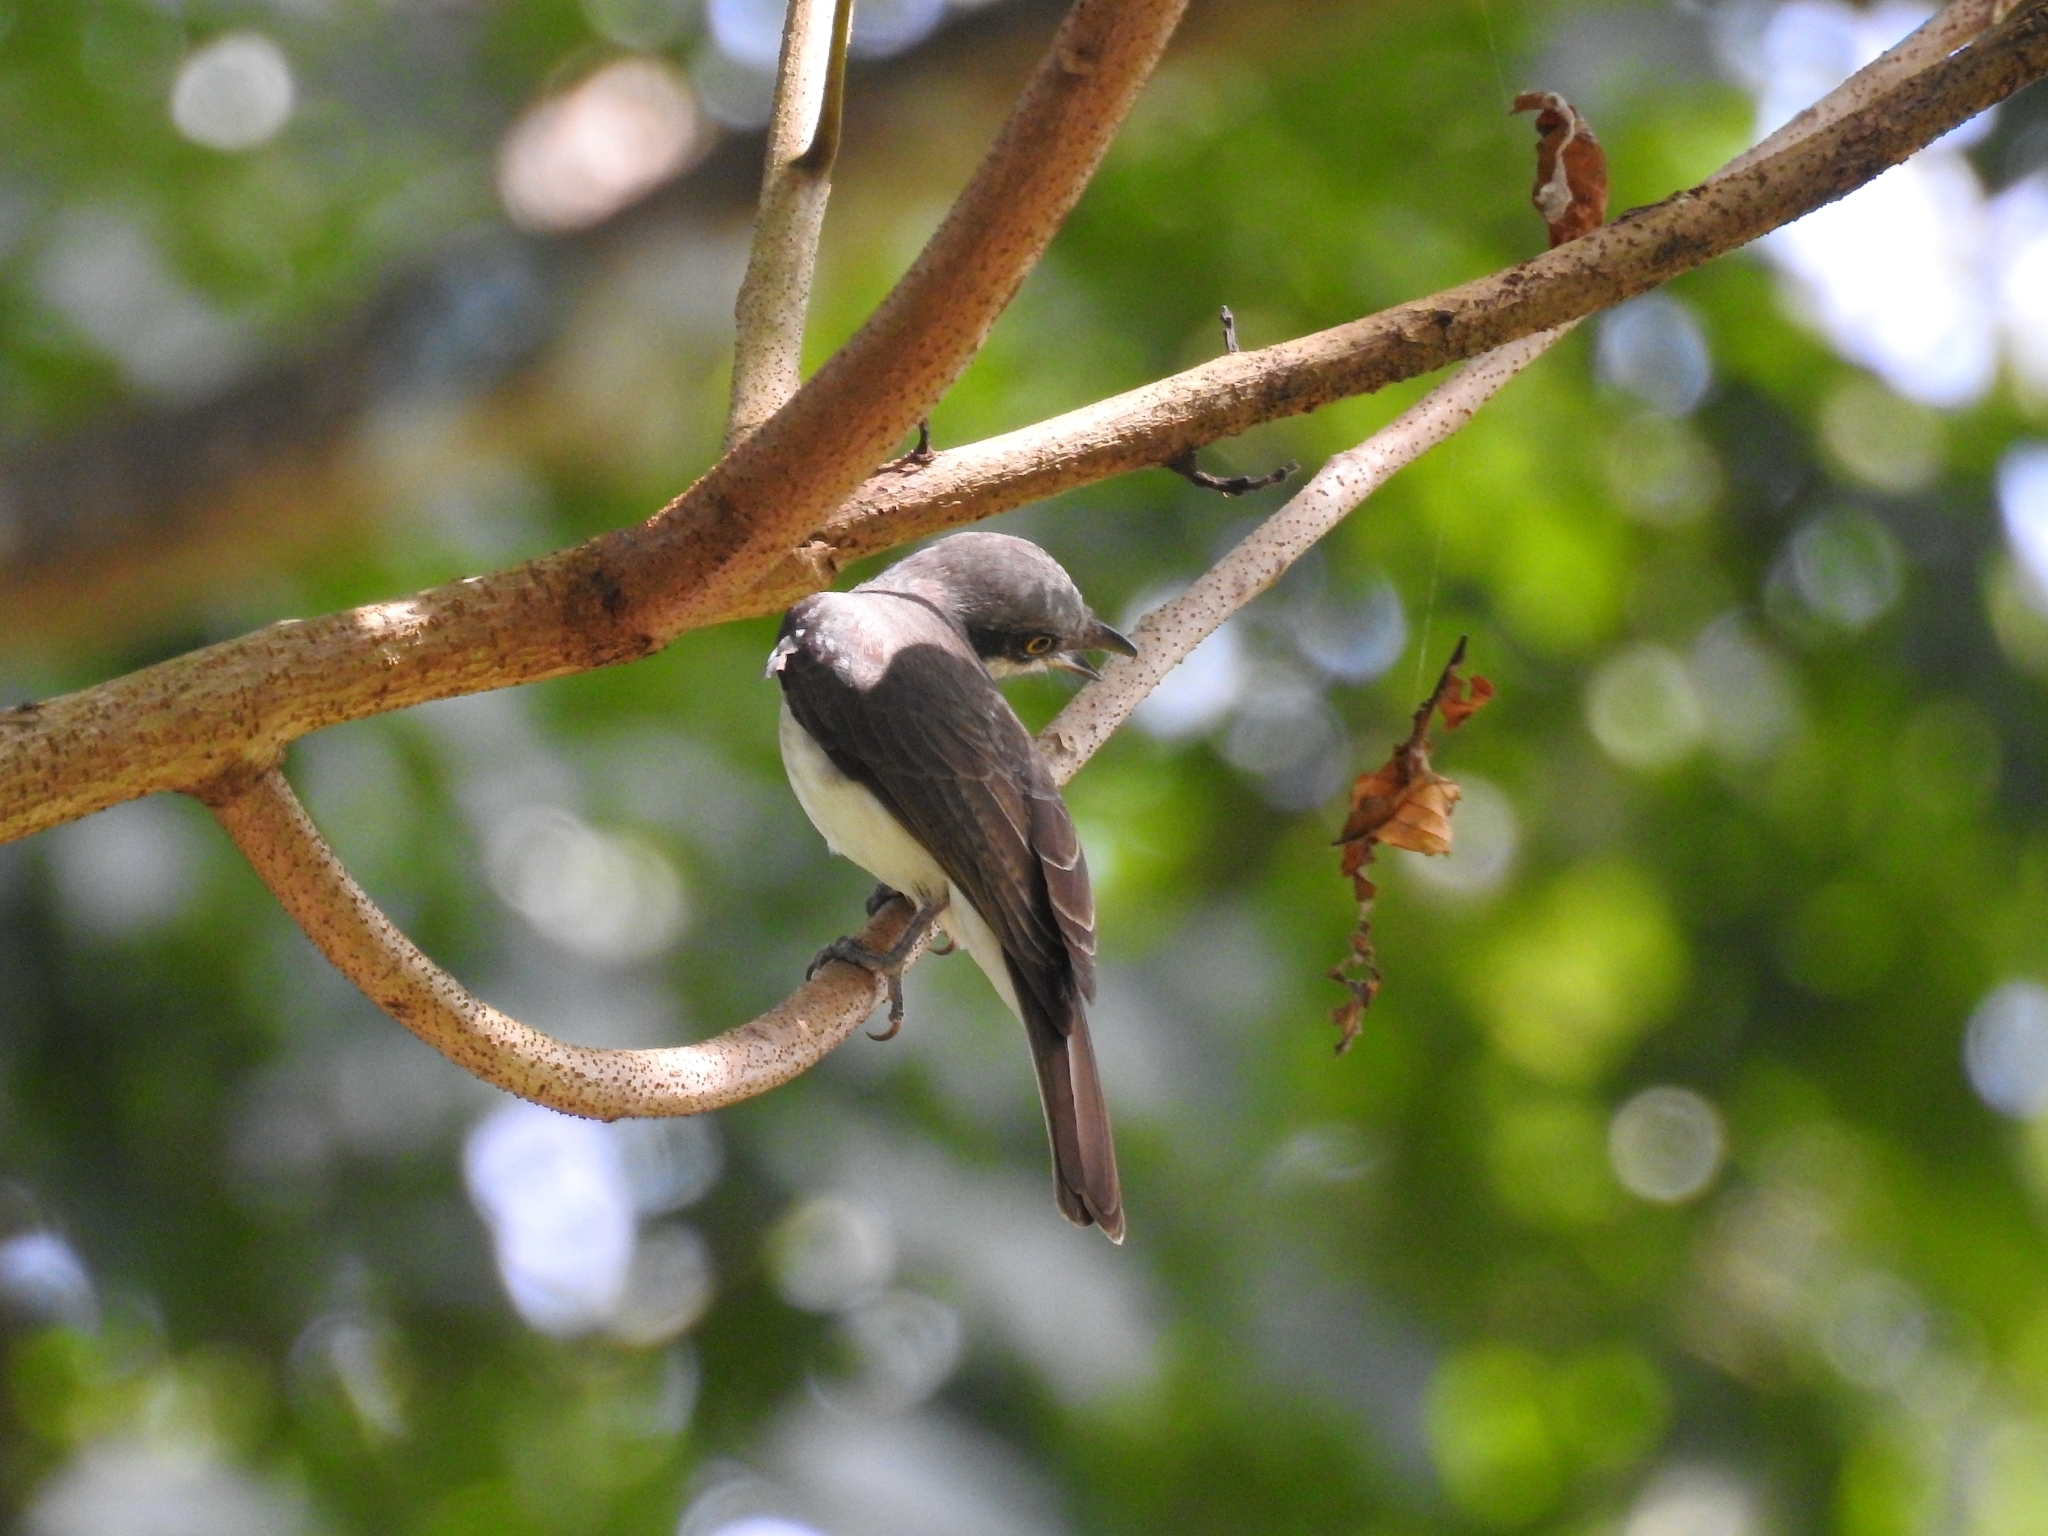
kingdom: Animalia
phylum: Chordata
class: Aves
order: Passeriformes
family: Tephrodornithidae
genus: Tephrodornis
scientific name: Tephrodornis sylvicola
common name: Malabar woodshrike
